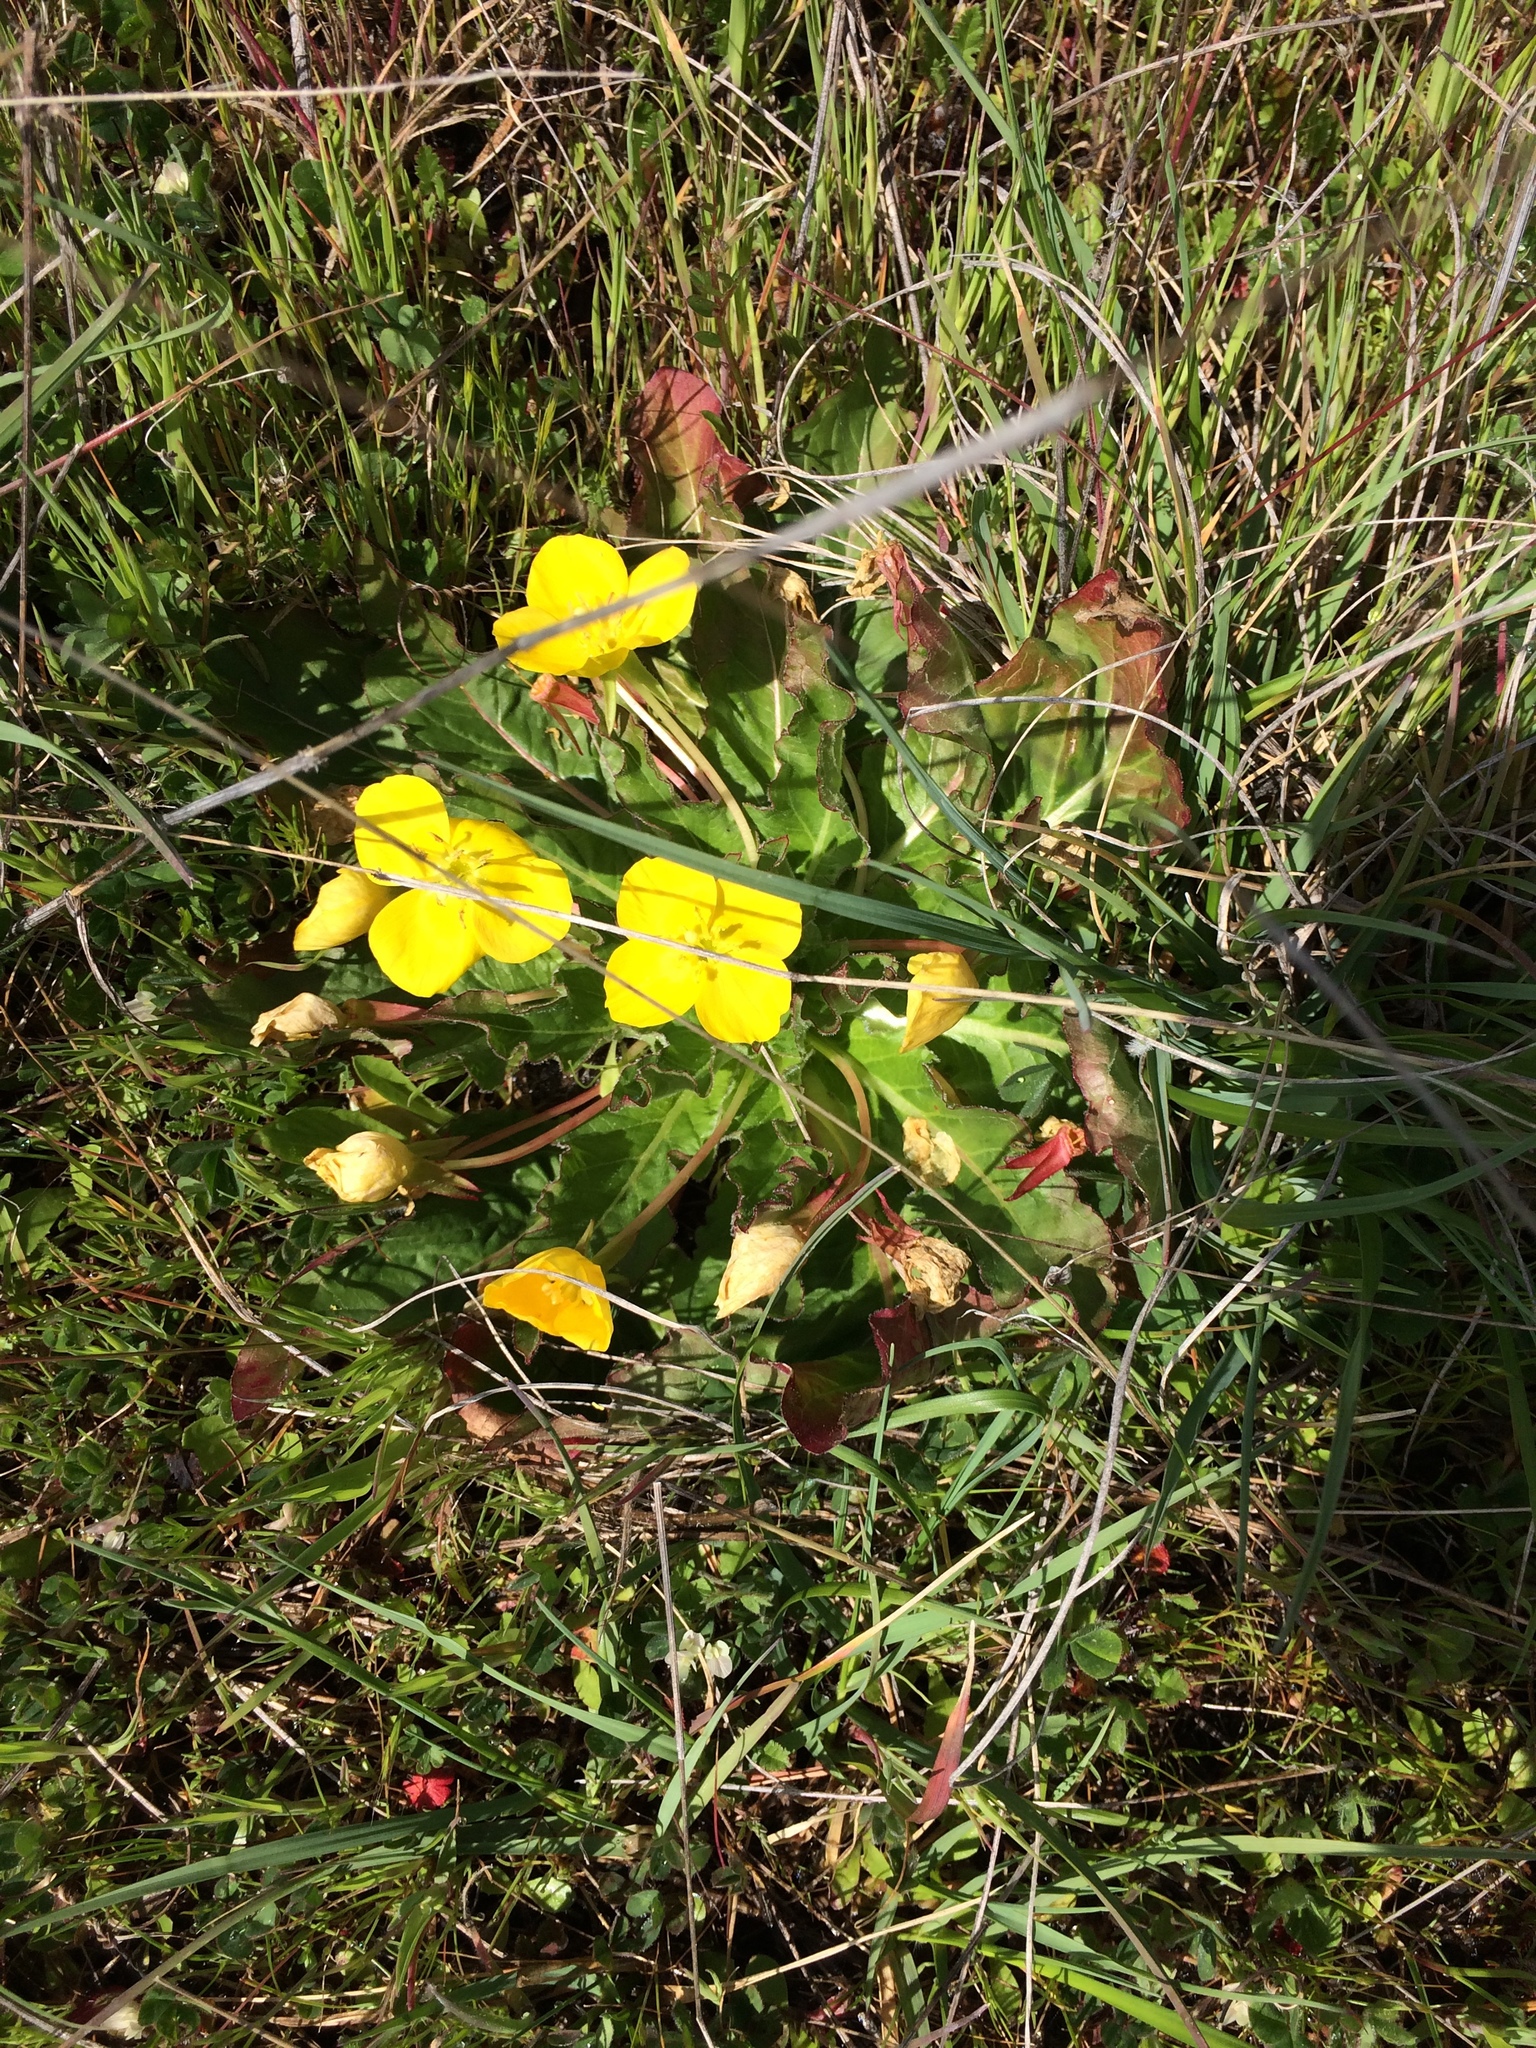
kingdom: Plantae
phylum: Tracheophyta
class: Magnoliopsida
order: Myrtales
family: Onagraceae
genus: Taraxia
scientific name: Taraxia ovata
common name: Goldeneggs
